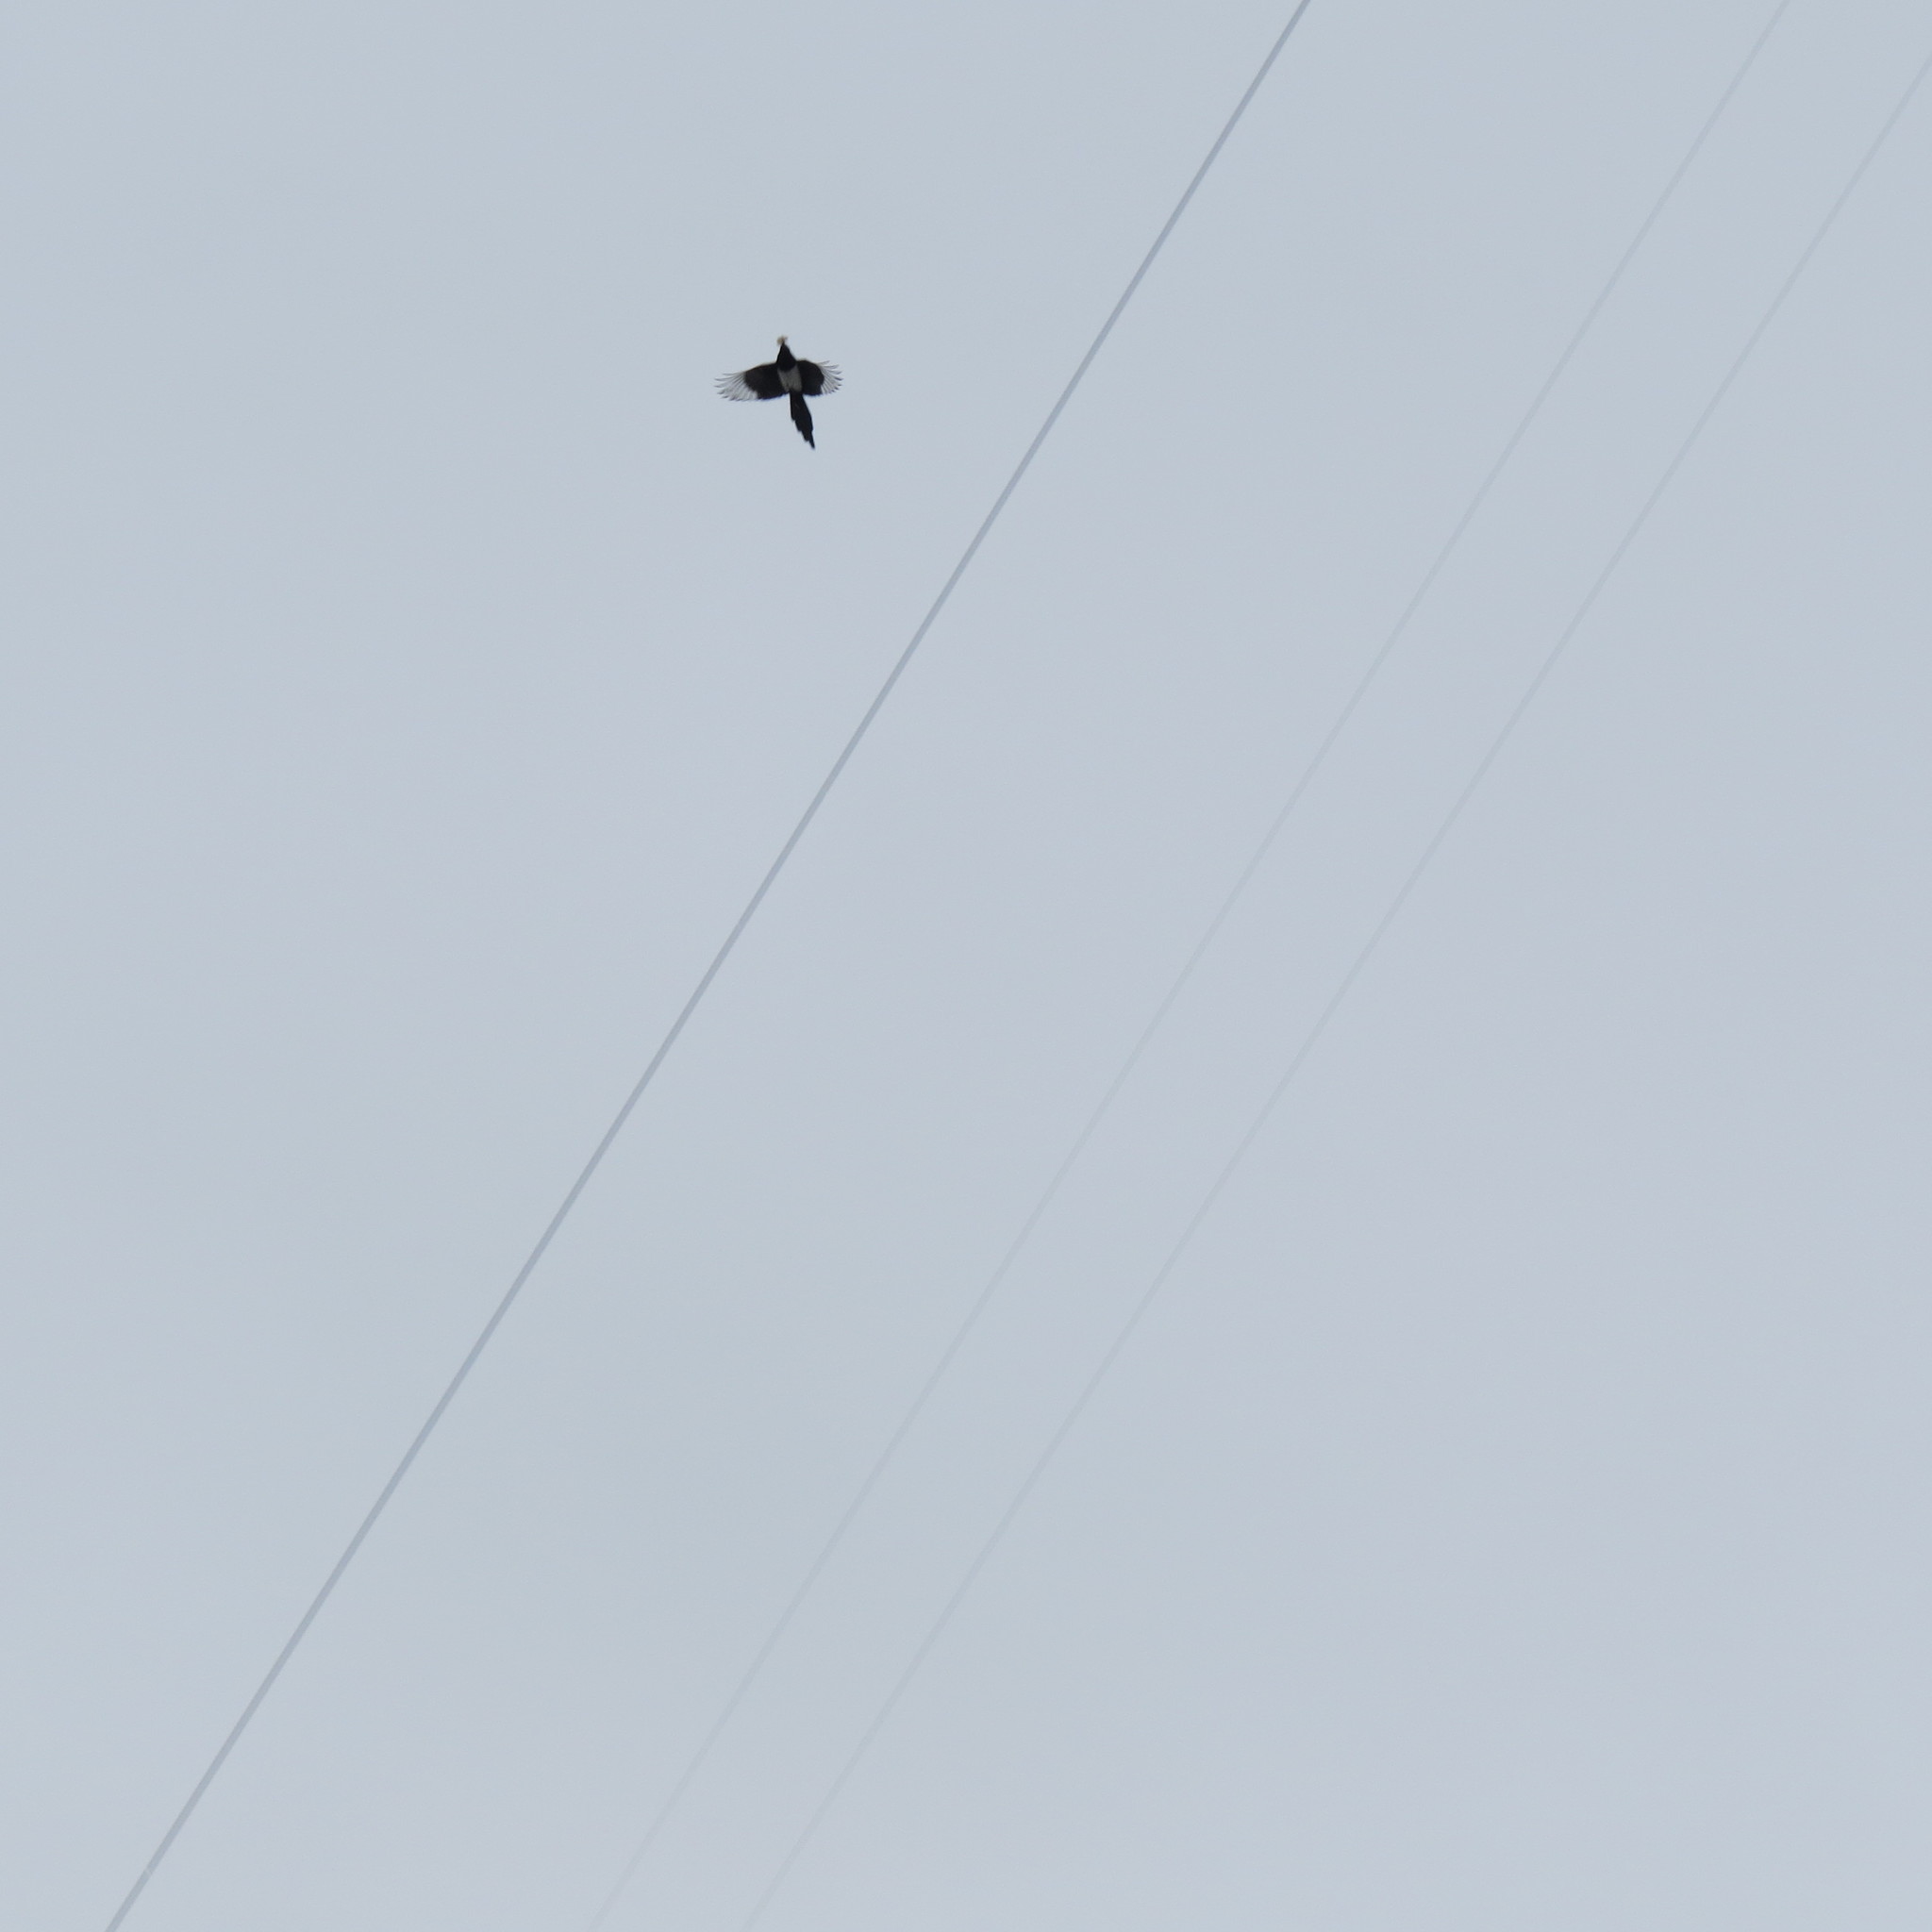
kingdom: Animalia
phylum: Chordata
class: Aves
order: Passeriformes
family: Corvidae
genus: Pica
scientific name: Pica pica
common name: Eurasian magpie
